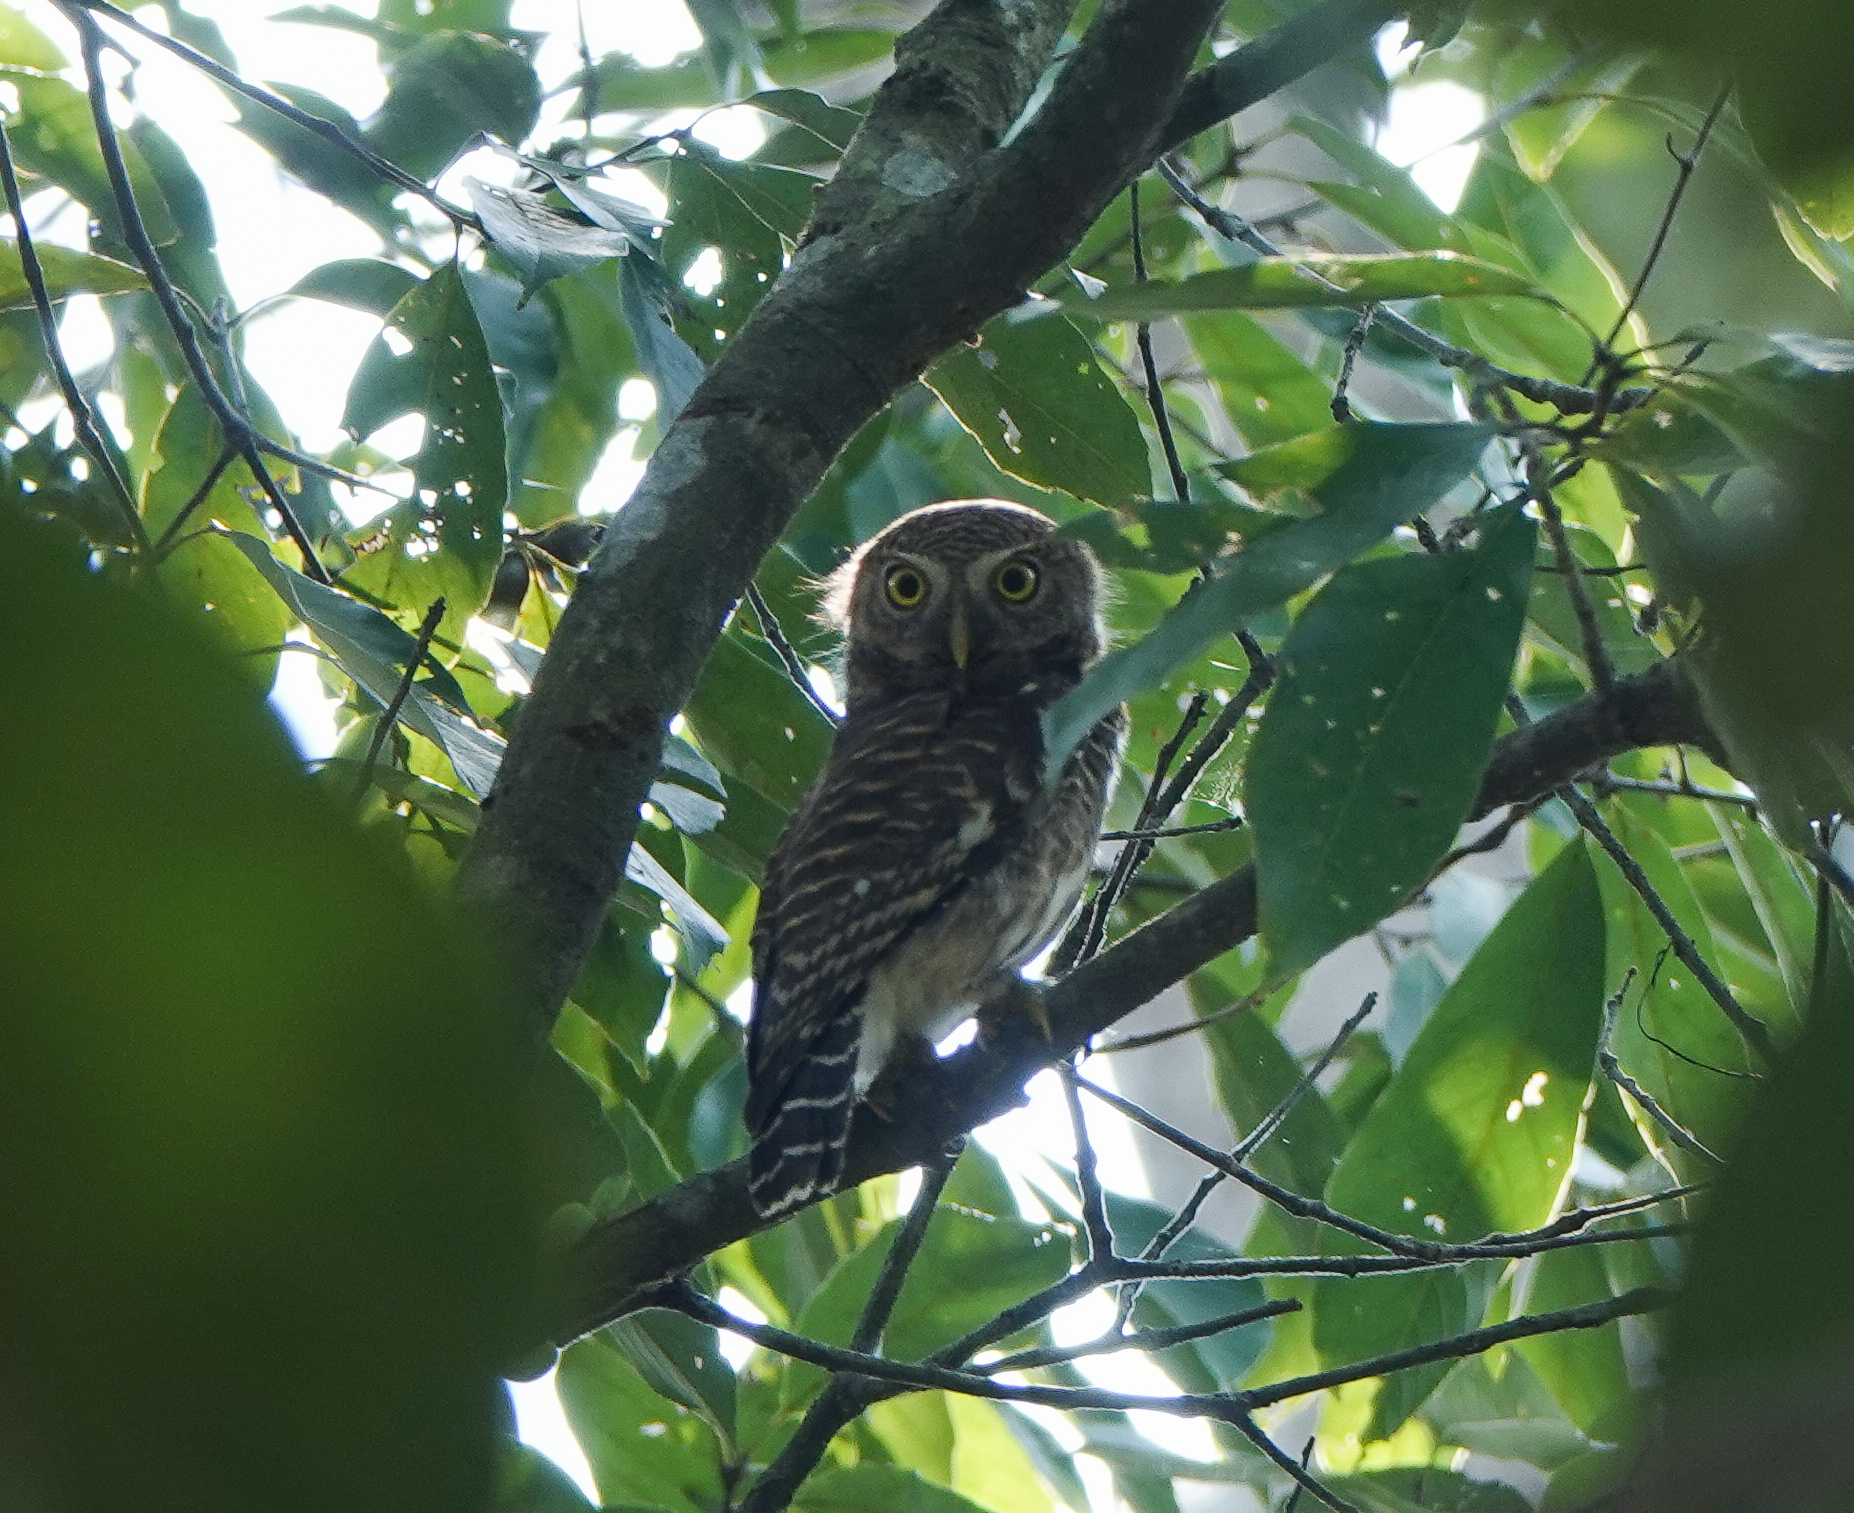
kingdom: Animalia
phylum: Chordata
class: Aves
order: Strigiformes
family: Strigidae
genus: Glaucidium
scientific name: Glaucidium cuculoides
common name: Asian barred owlet
